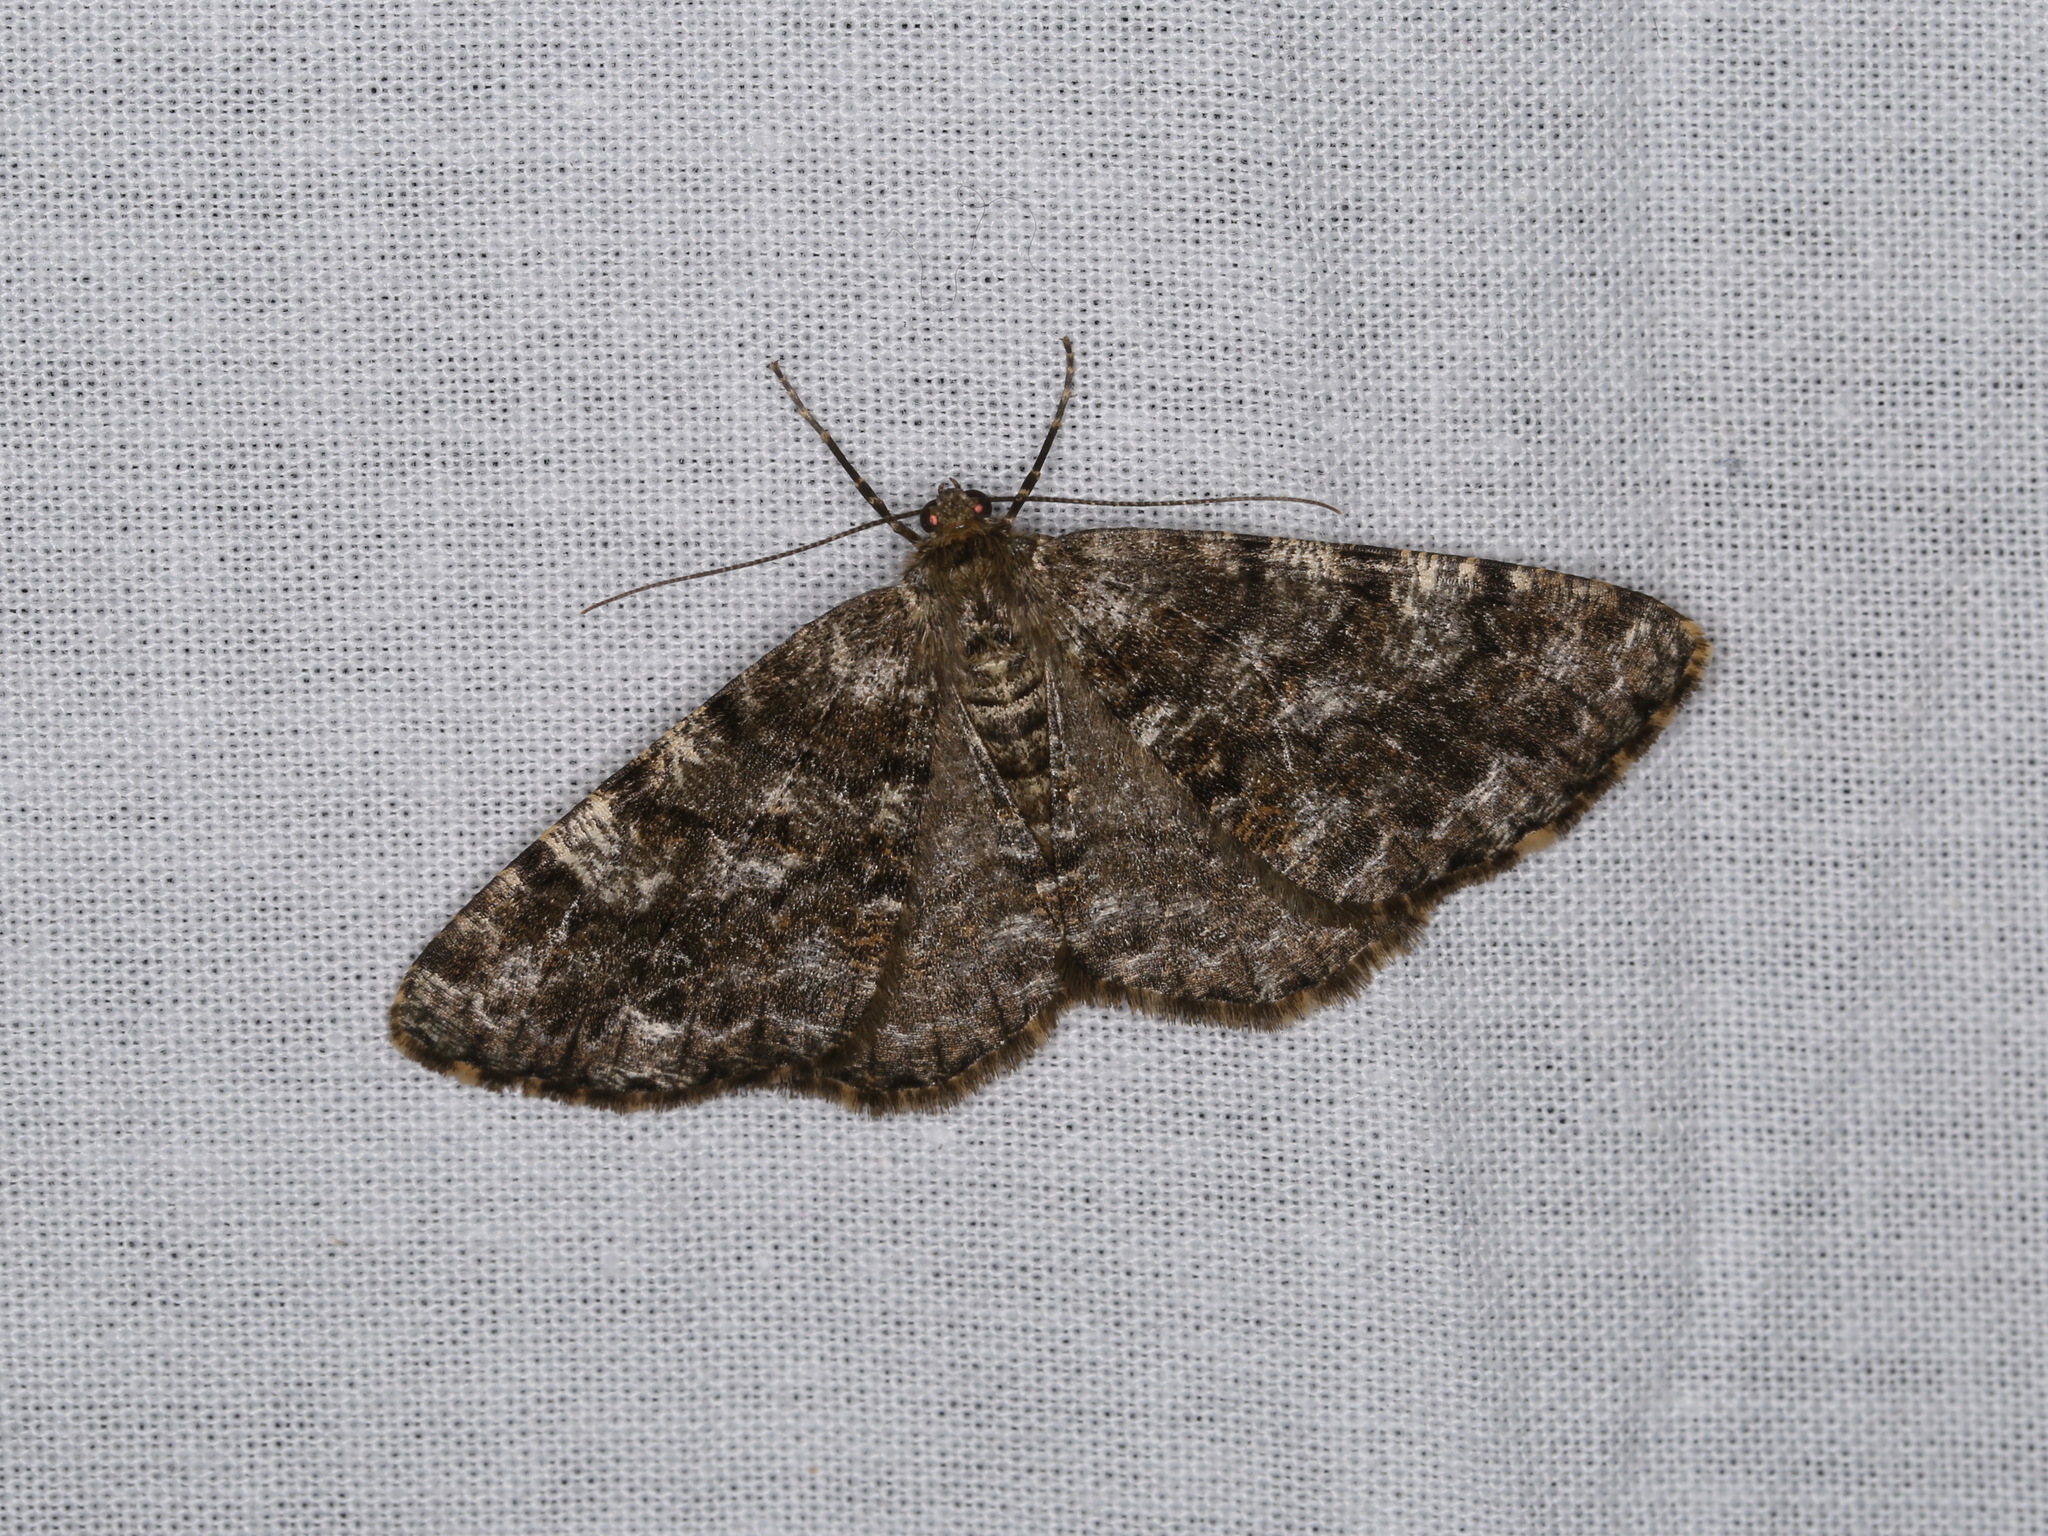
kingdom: Animalia
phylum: Arthropoda
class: Insecta
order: Lepidoptera
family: Geometridae
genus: Deileptenia
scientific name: Deileptenia ribeata
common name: Satin beauty
